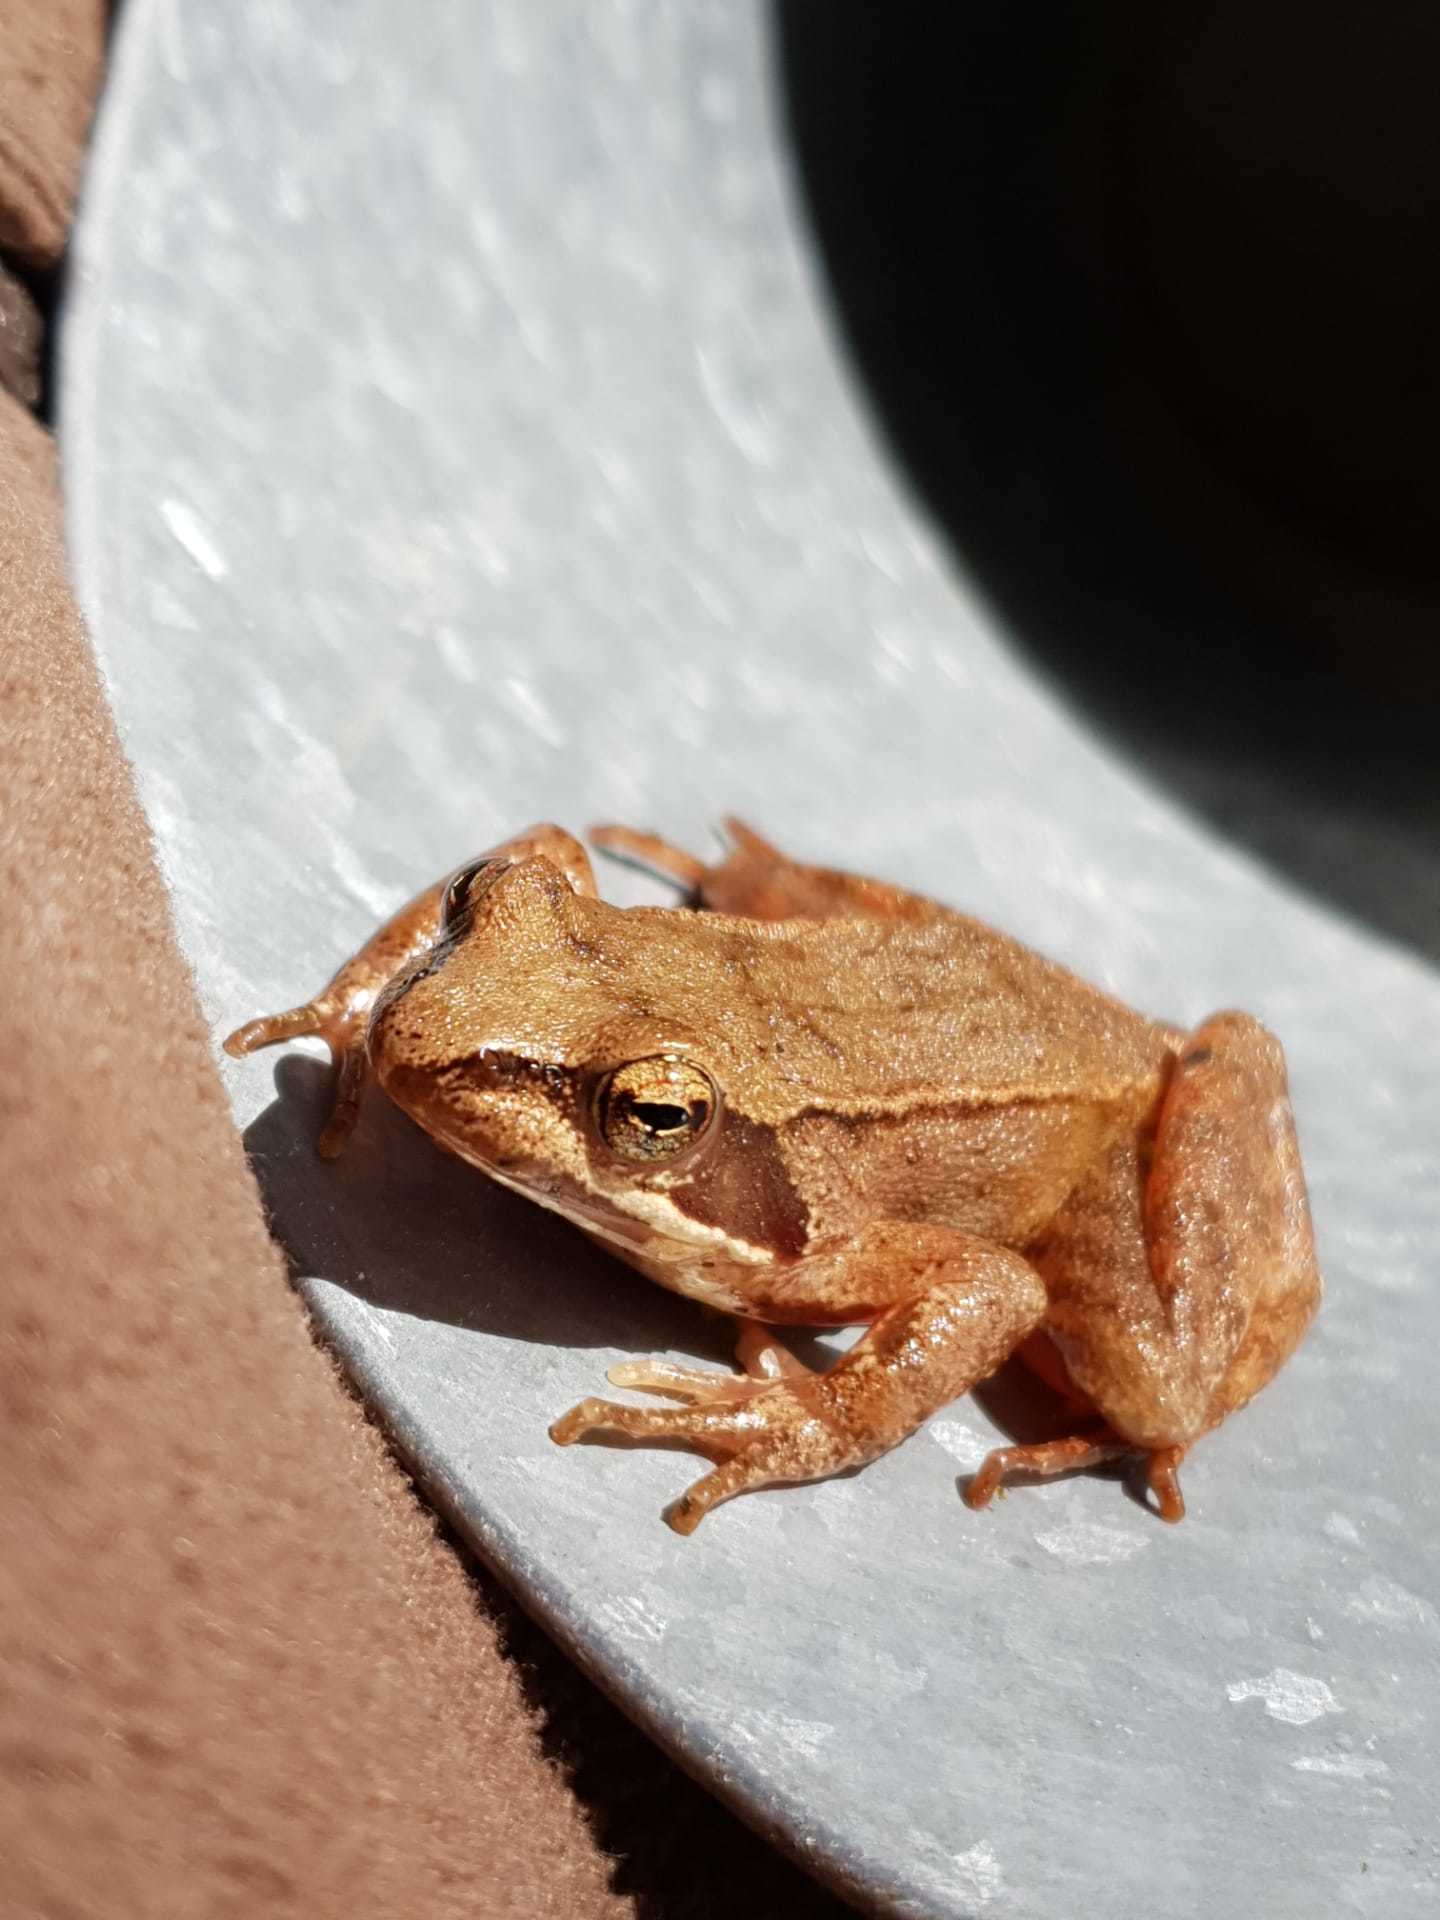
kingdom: Animalia
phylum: Chordata
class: Amphibia
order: Anura
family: Ranidae
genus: Rana
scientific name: Rana iberica
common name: Iberian frog
